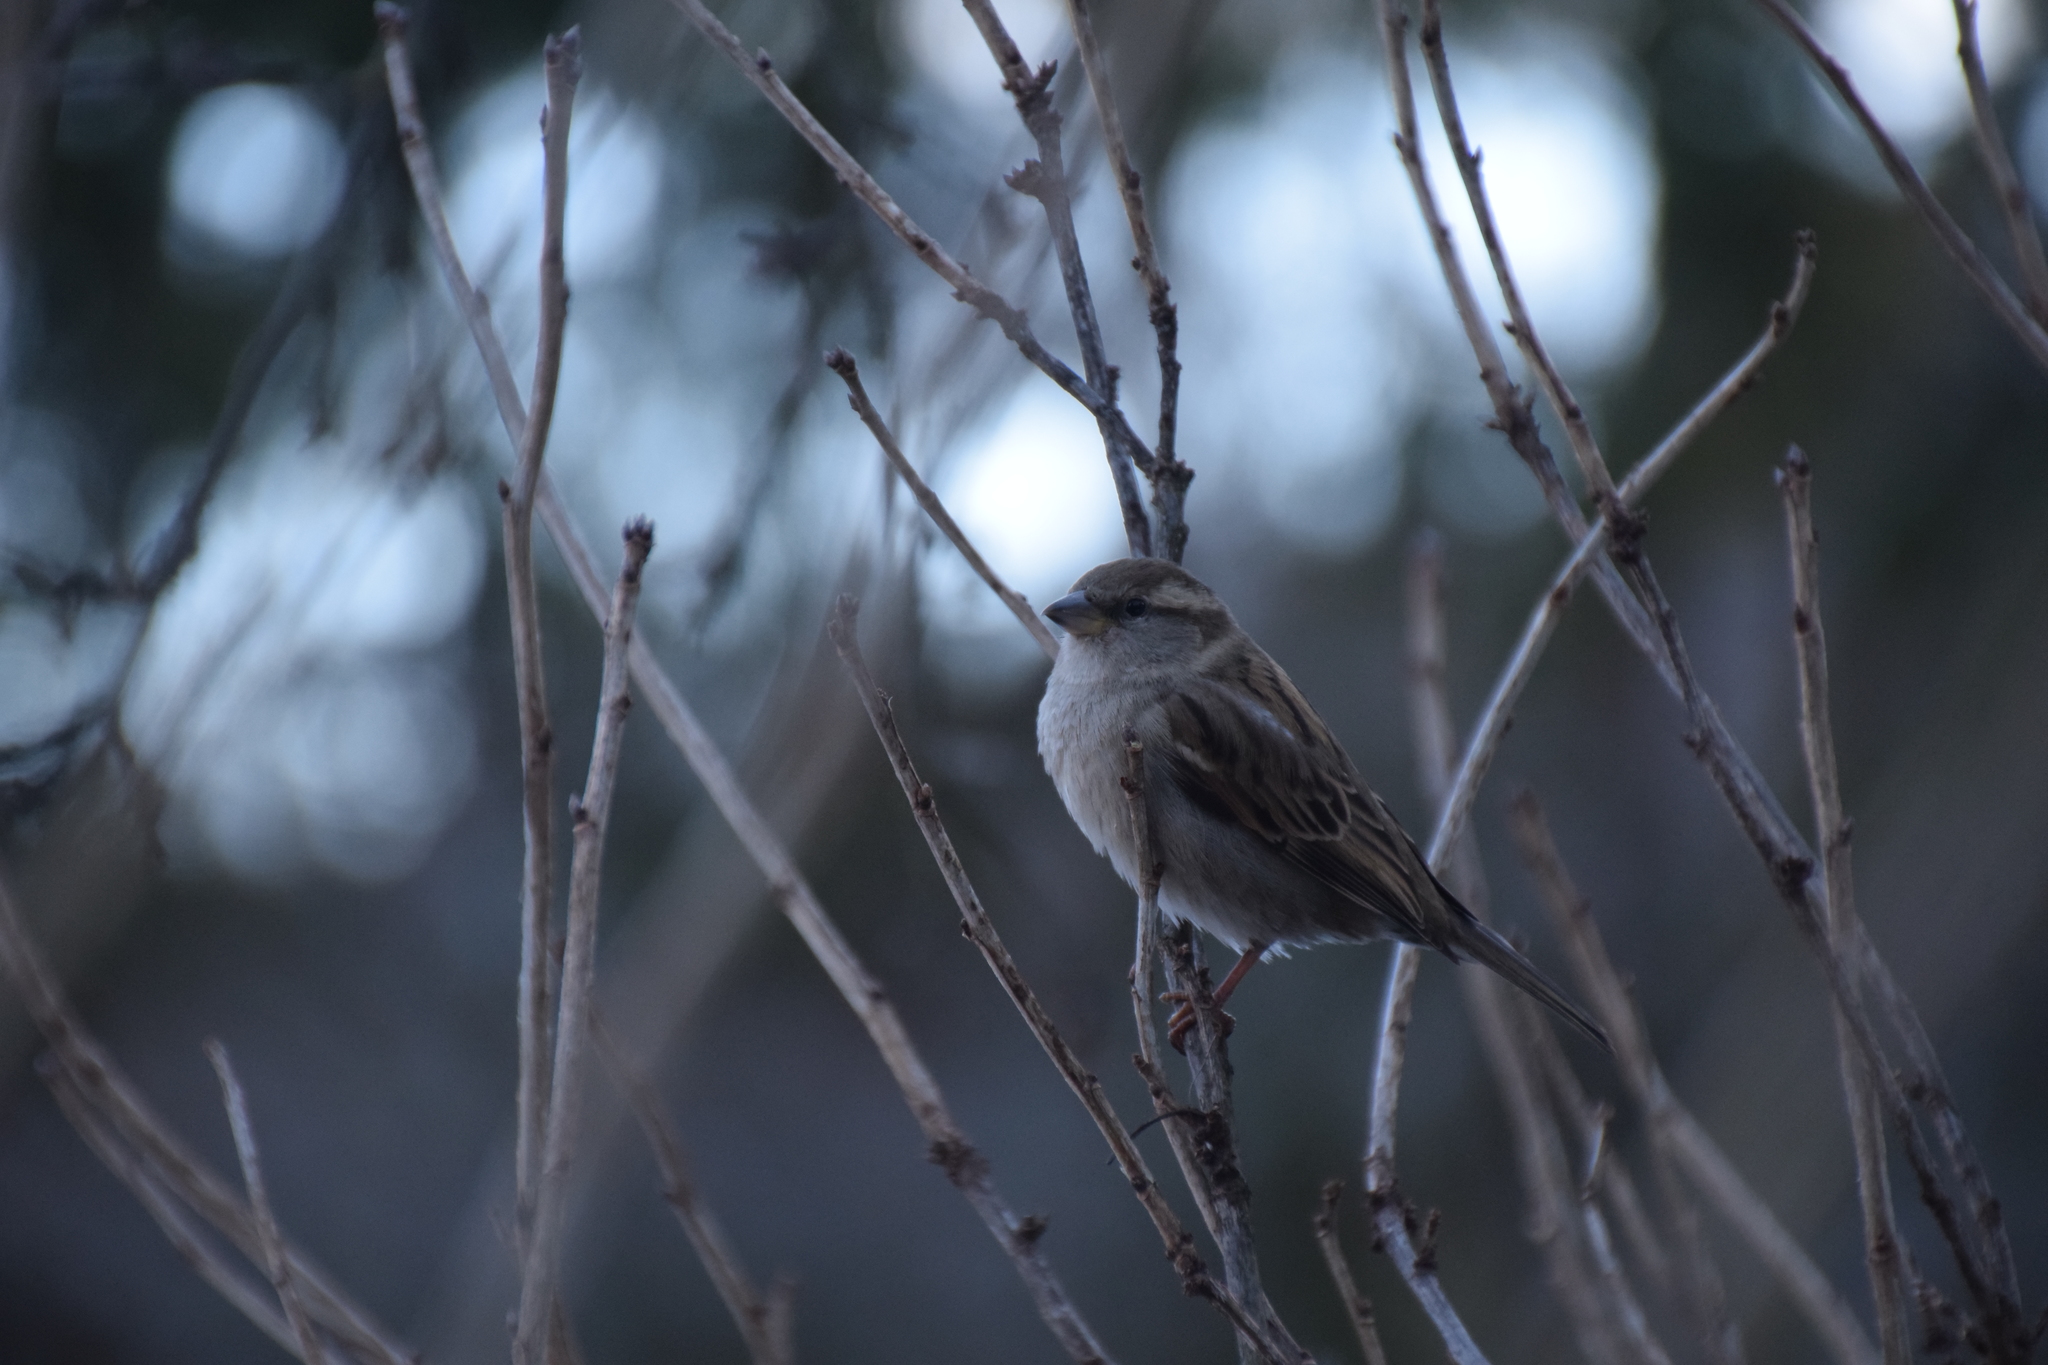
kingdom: Animalia
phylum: Chordata
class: Aves
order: Passeriformes
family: Passeridae
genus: Passer
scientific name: Passer domesticus
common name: House sparrow
